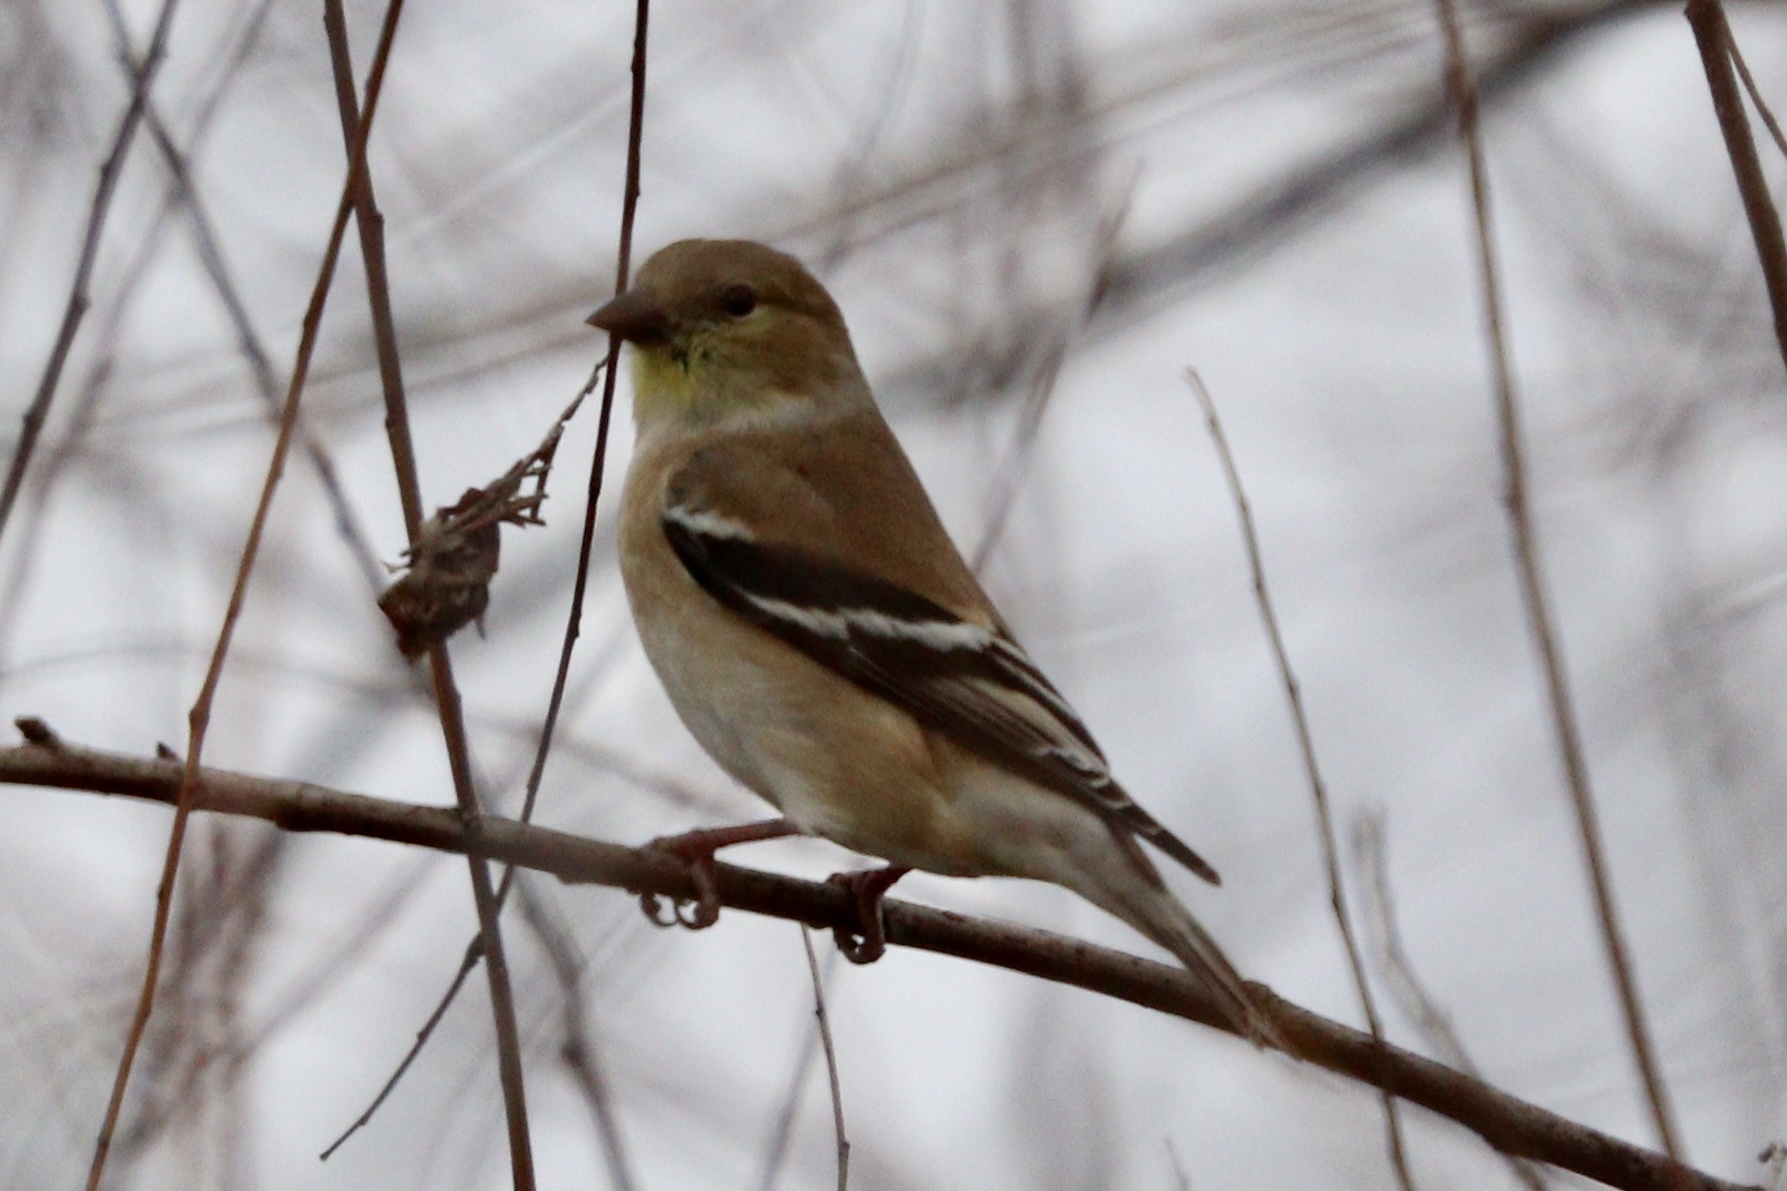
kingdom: Animalia
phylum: Chordata
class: Aves
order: Passeriformes
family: Fringillidae
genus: Spinus
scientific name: Spinus tristis
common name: American goldfinch
